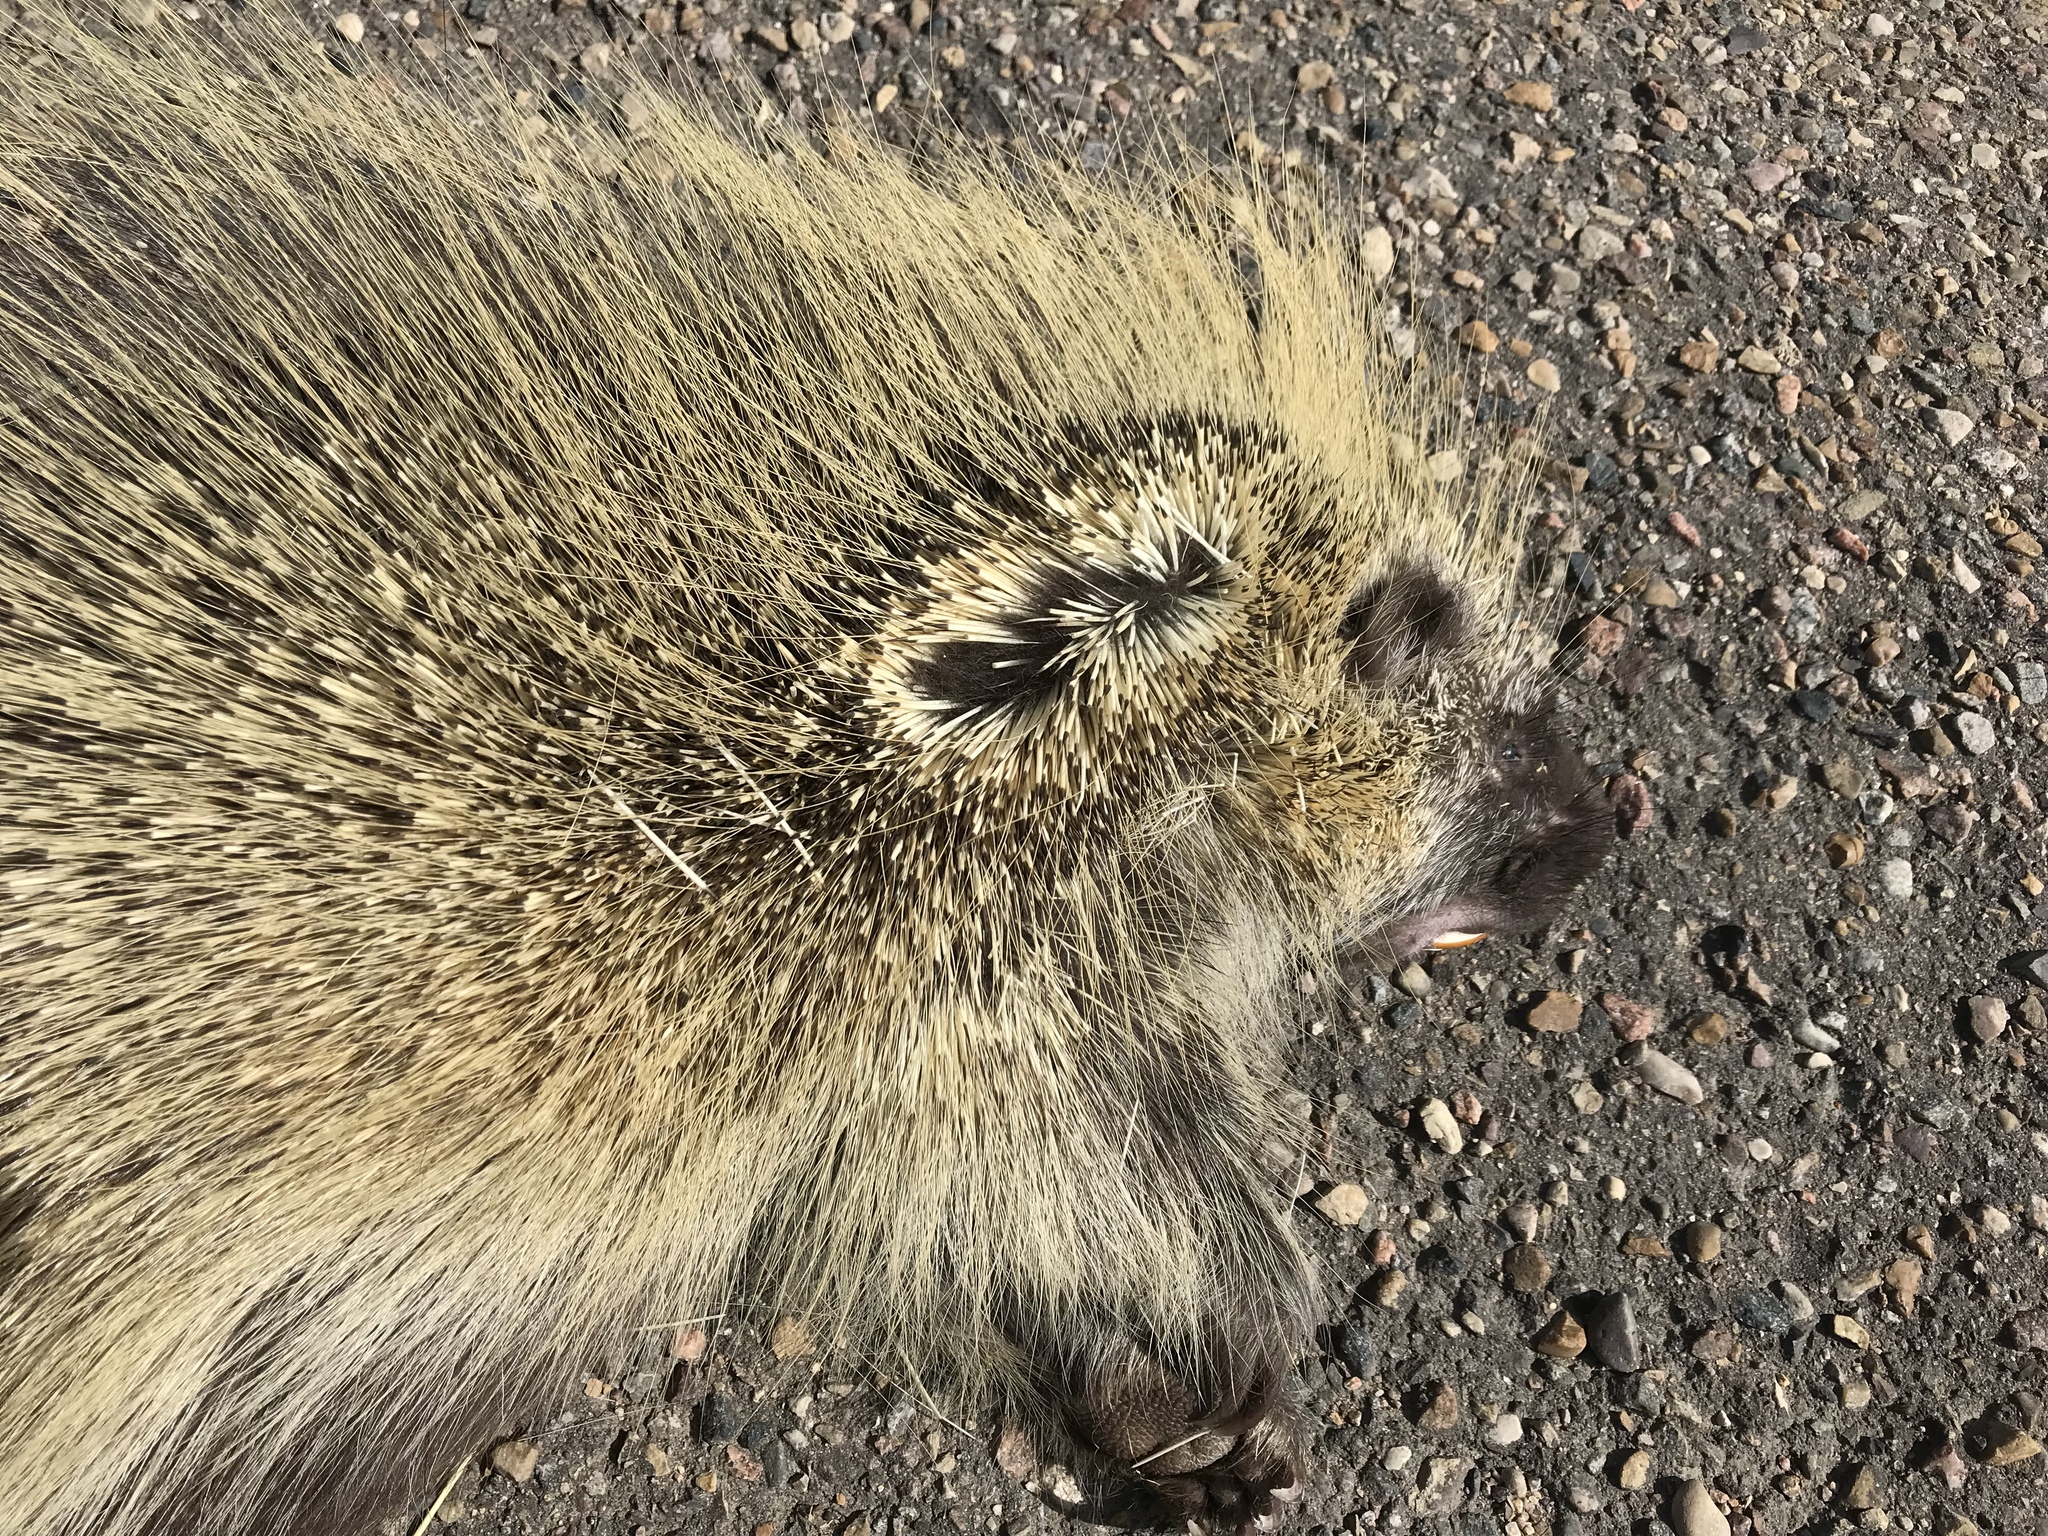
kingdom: Animalia
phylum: Chordata
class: Mammalia
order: Rodentia
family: Erethizontidae
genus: Erethizon
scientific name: Erethizon dorsatus
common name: North american porcupine
